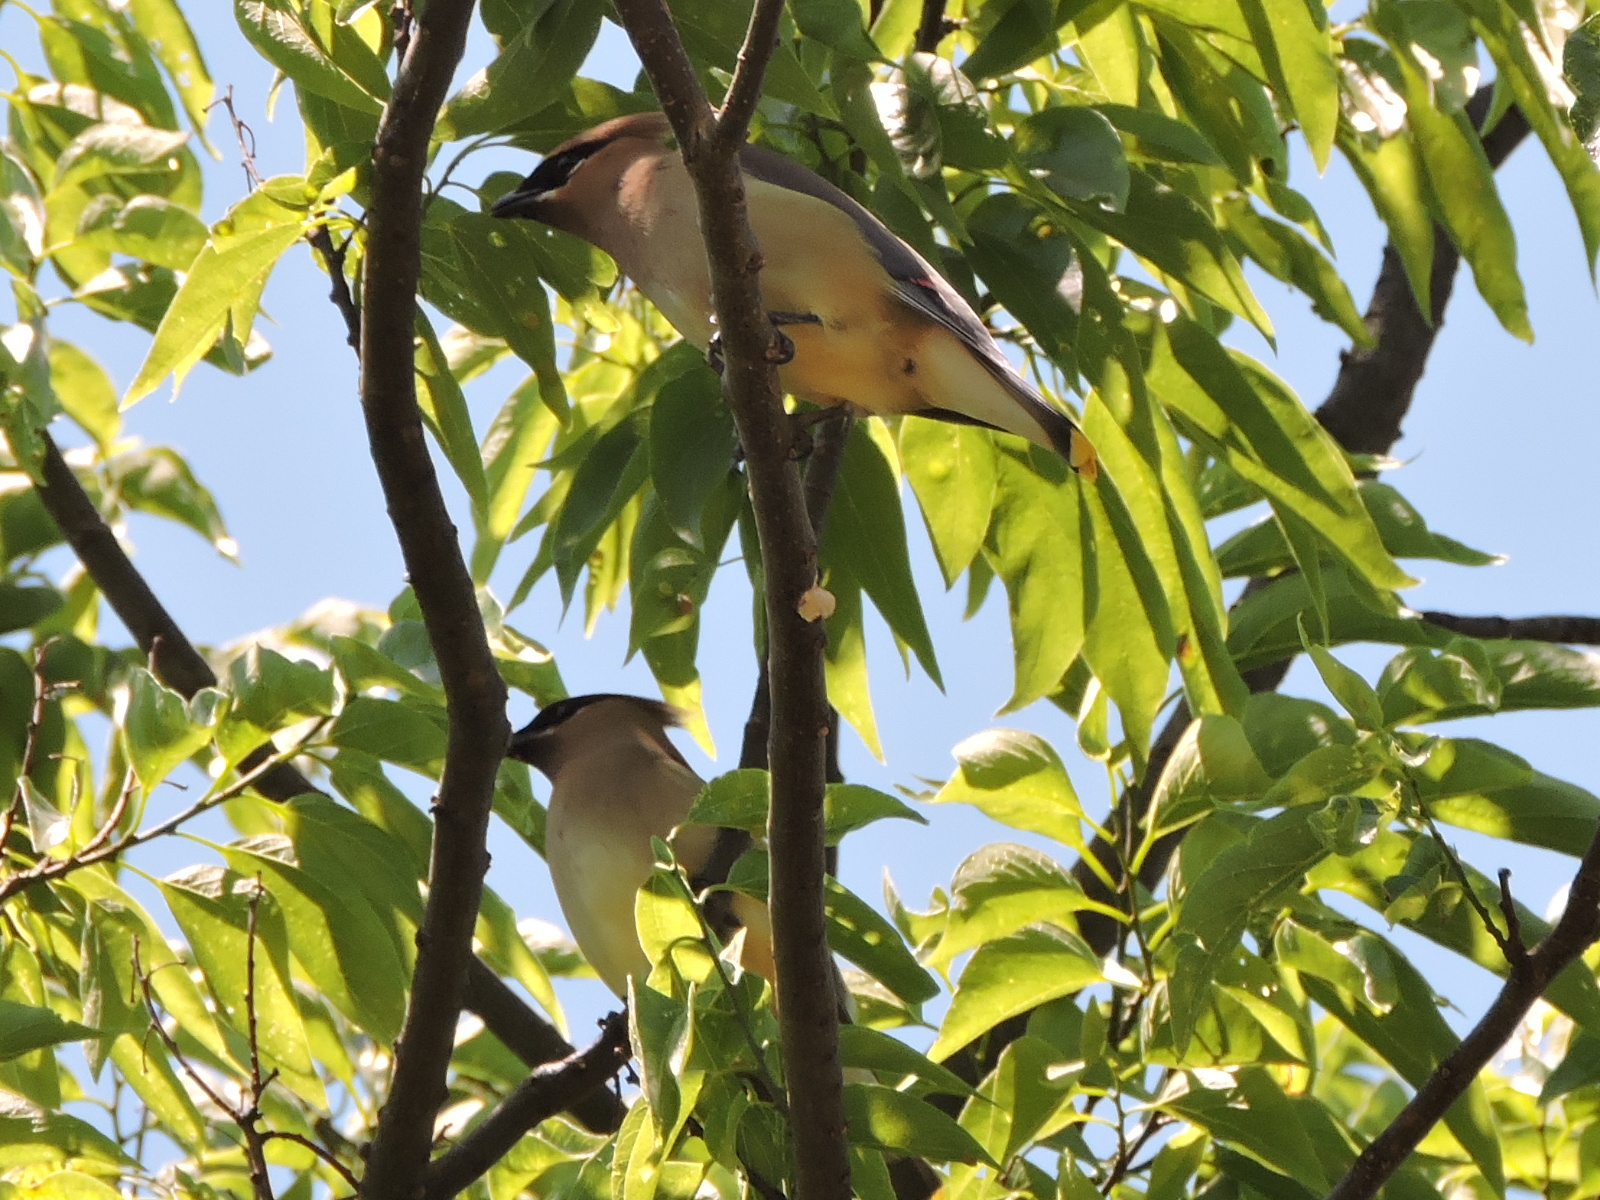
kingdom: Animalia
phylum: Chordata
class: Aves
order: Passeriformes
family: Bombycillidae
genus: Bombycilla
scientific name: Bombycilla cedrorum
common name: Cedar waxwing
